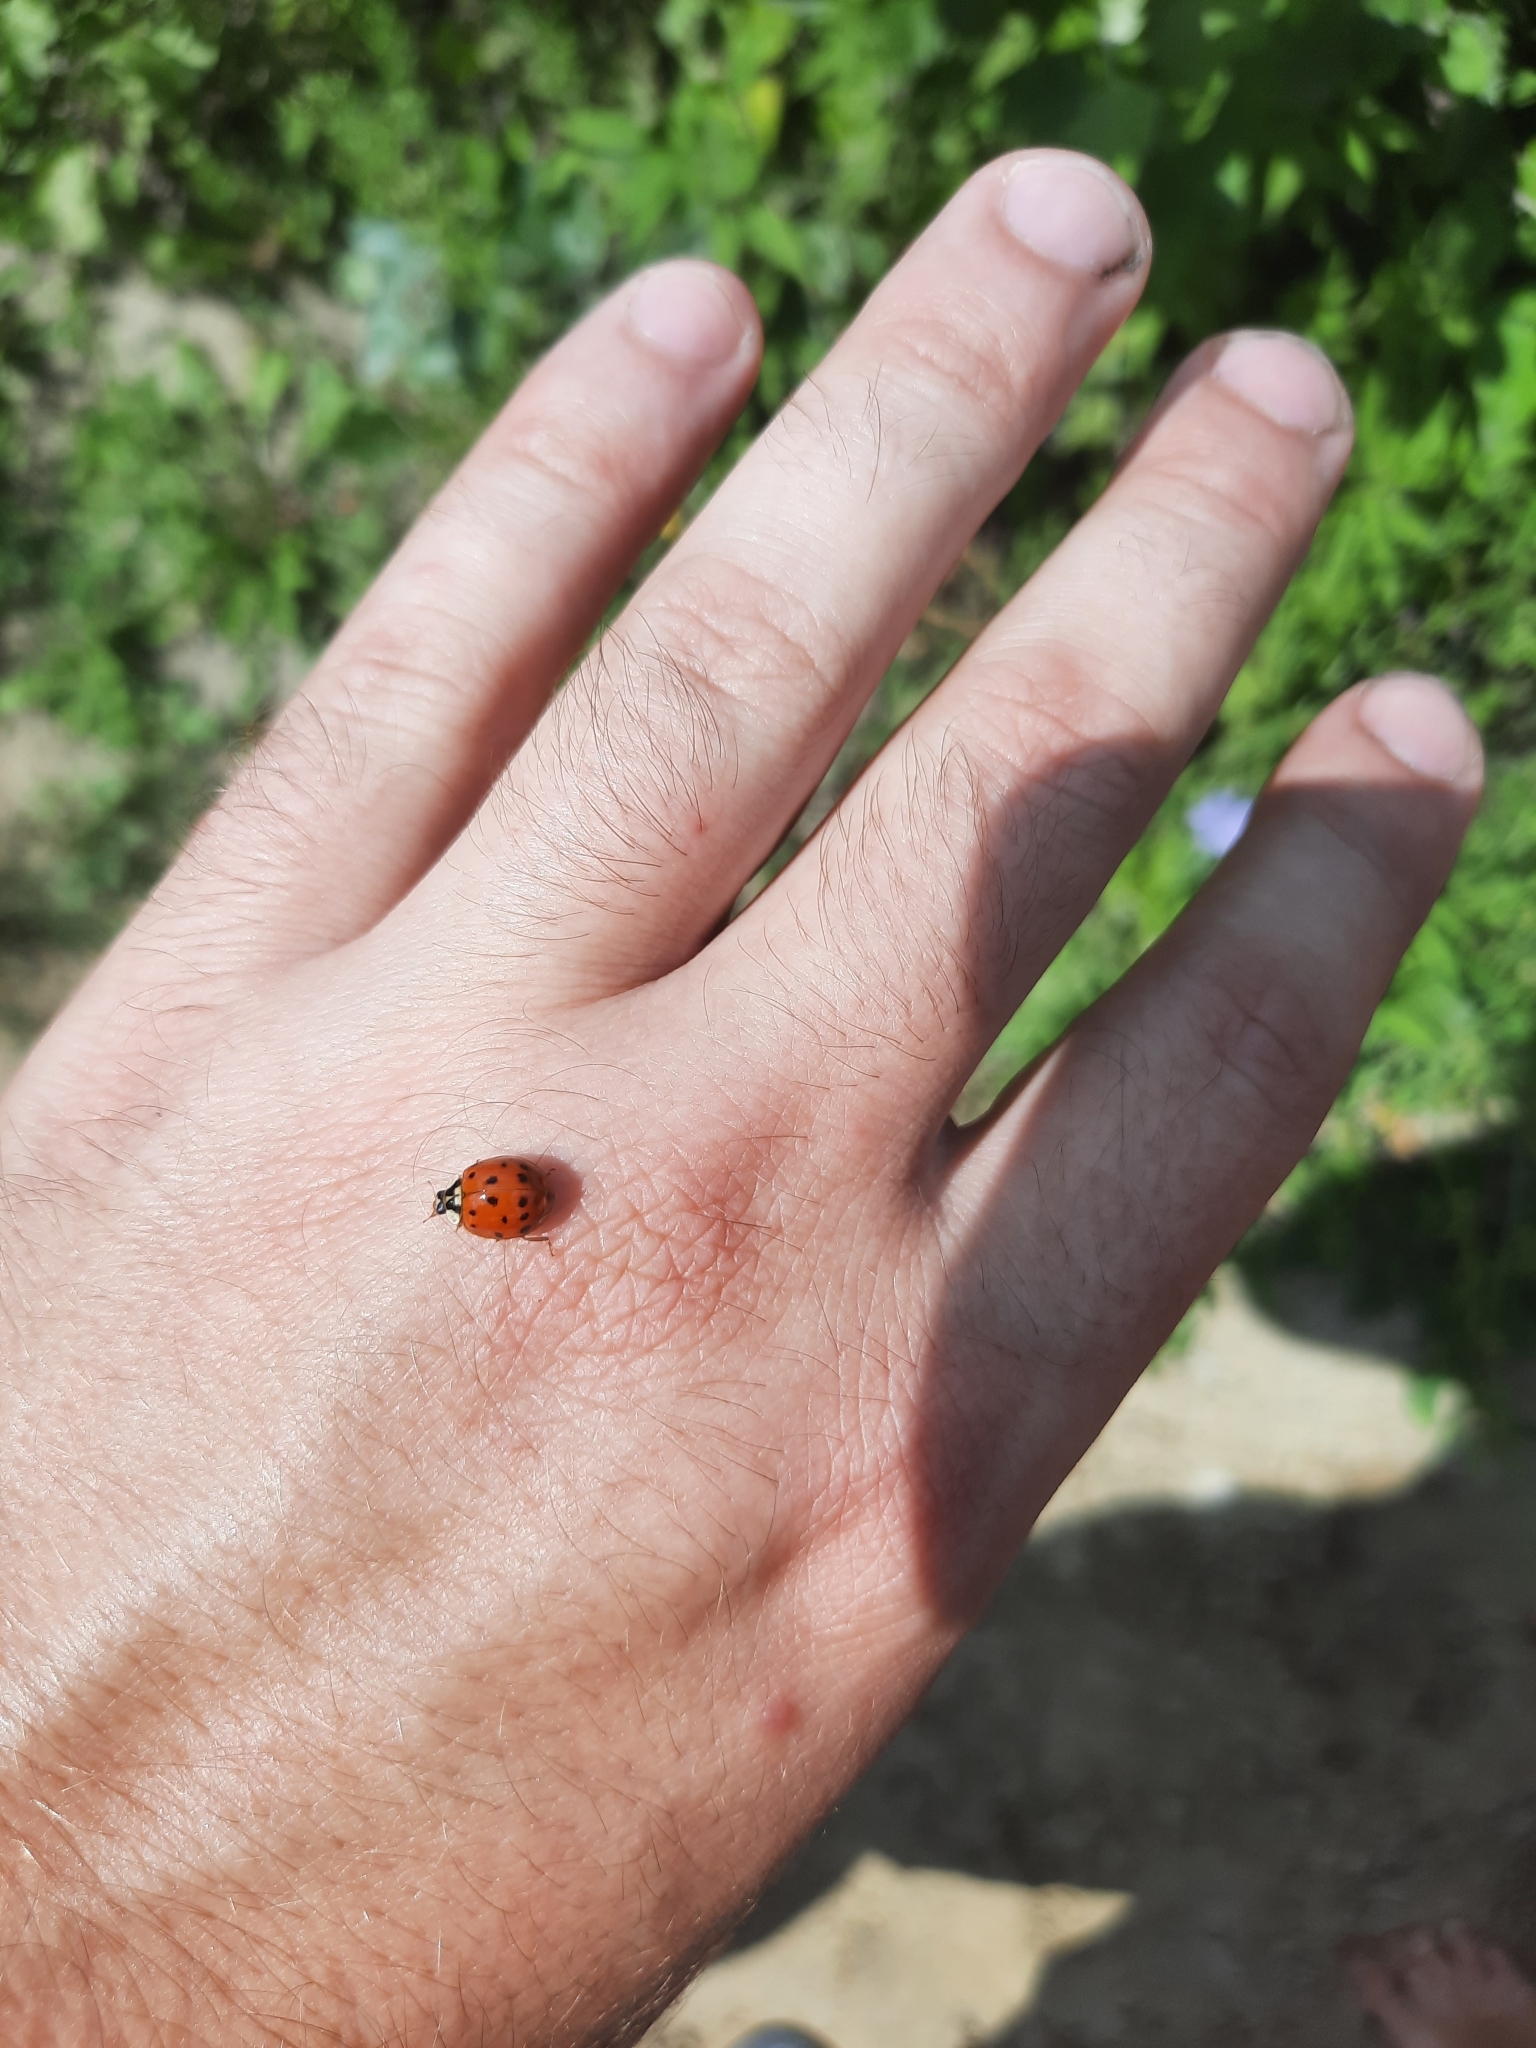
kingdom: Animalia
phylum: Arthropoda
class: Insecta
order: Coleoptera
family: Coccinellidae
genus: Harmonia
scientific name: Harmonia axyridis
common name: Harlequin ladybird
